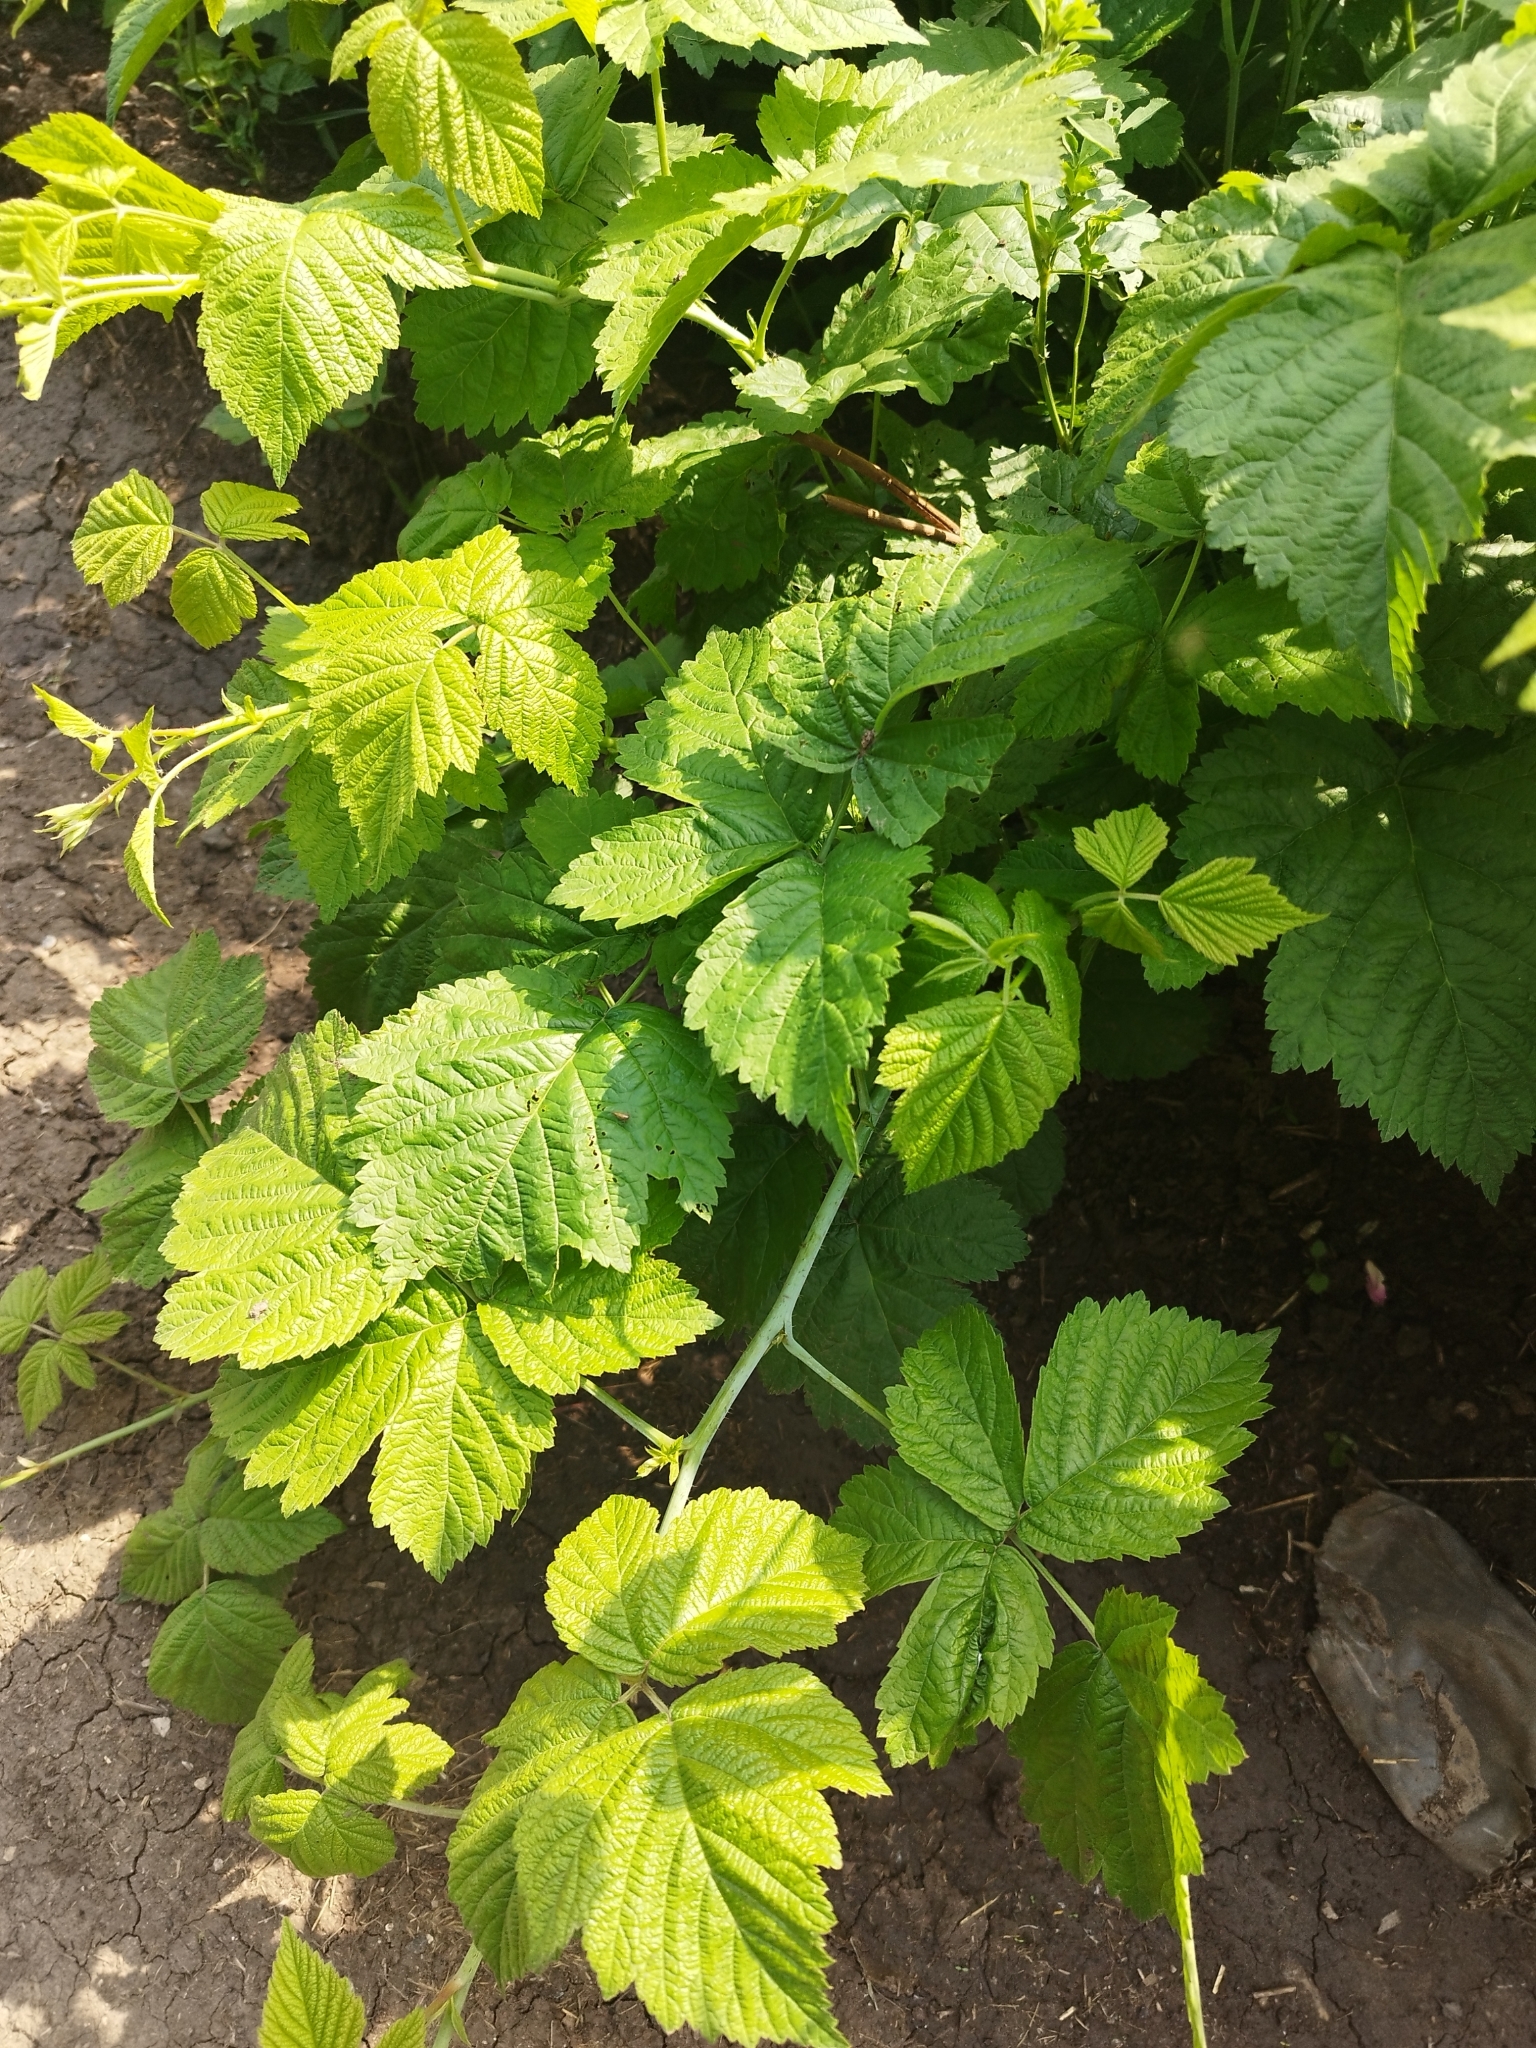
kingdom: Plantae
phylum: Tracheophyta
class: Magnoliopsida
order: Rosales
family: Rosaceae
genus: Rubus
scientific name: Rubus caesius
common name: Dewberry
